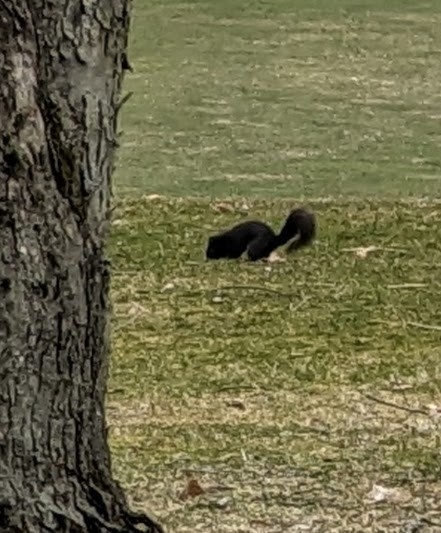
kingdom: Animalia
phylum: Chordata
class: Mammalia
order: Rodentia
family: Sciuridae
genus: Sciurus
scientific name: Sciurus carolinensis
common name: Eastern gray squirrel
